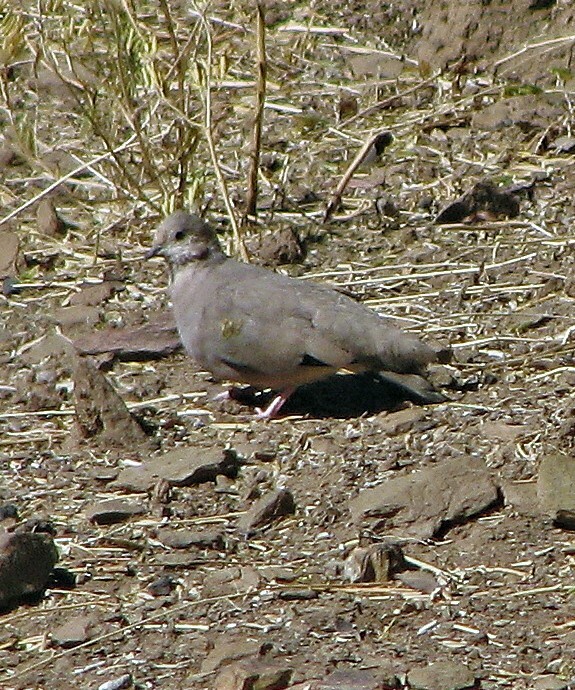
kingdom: Animalia
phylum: Chordata
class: Aves
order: Columbiformes
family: Columbidae
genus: Metriopelia
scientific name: Metriopelia aymara
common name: Golden-spotted ground dove
